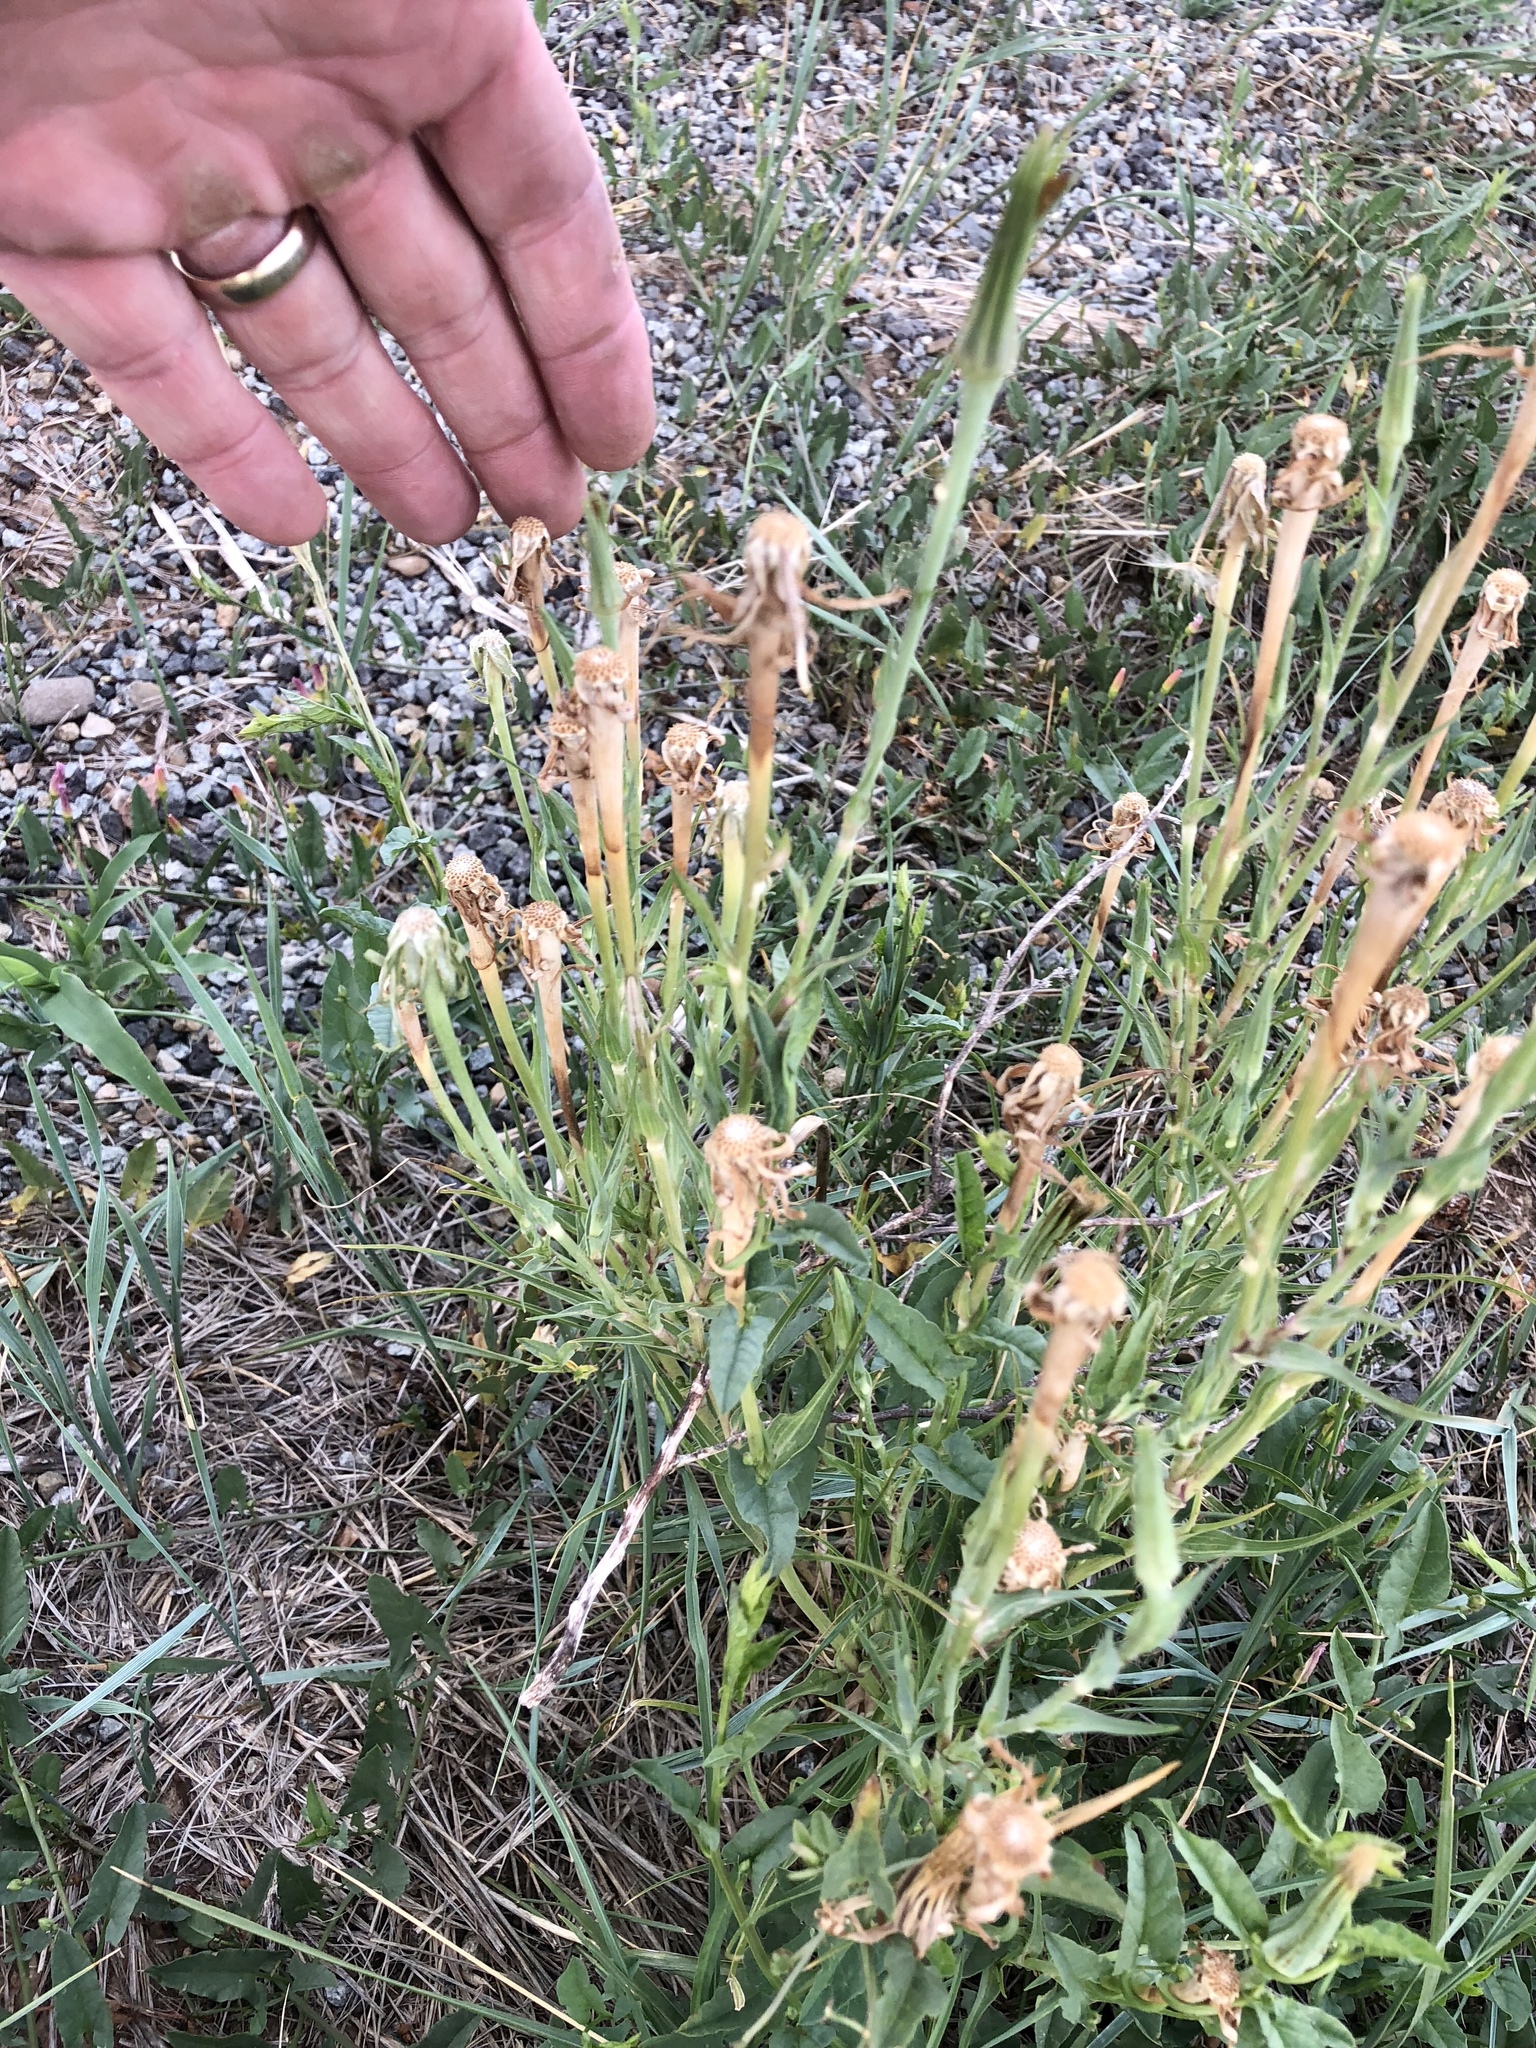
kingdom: Plantae
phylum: Tracheophyta
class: Magnoliopsida
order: Asterales
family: Asteraceae
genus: Tragopogon
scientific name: Tragopogon dubius
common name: Yellow salsify
